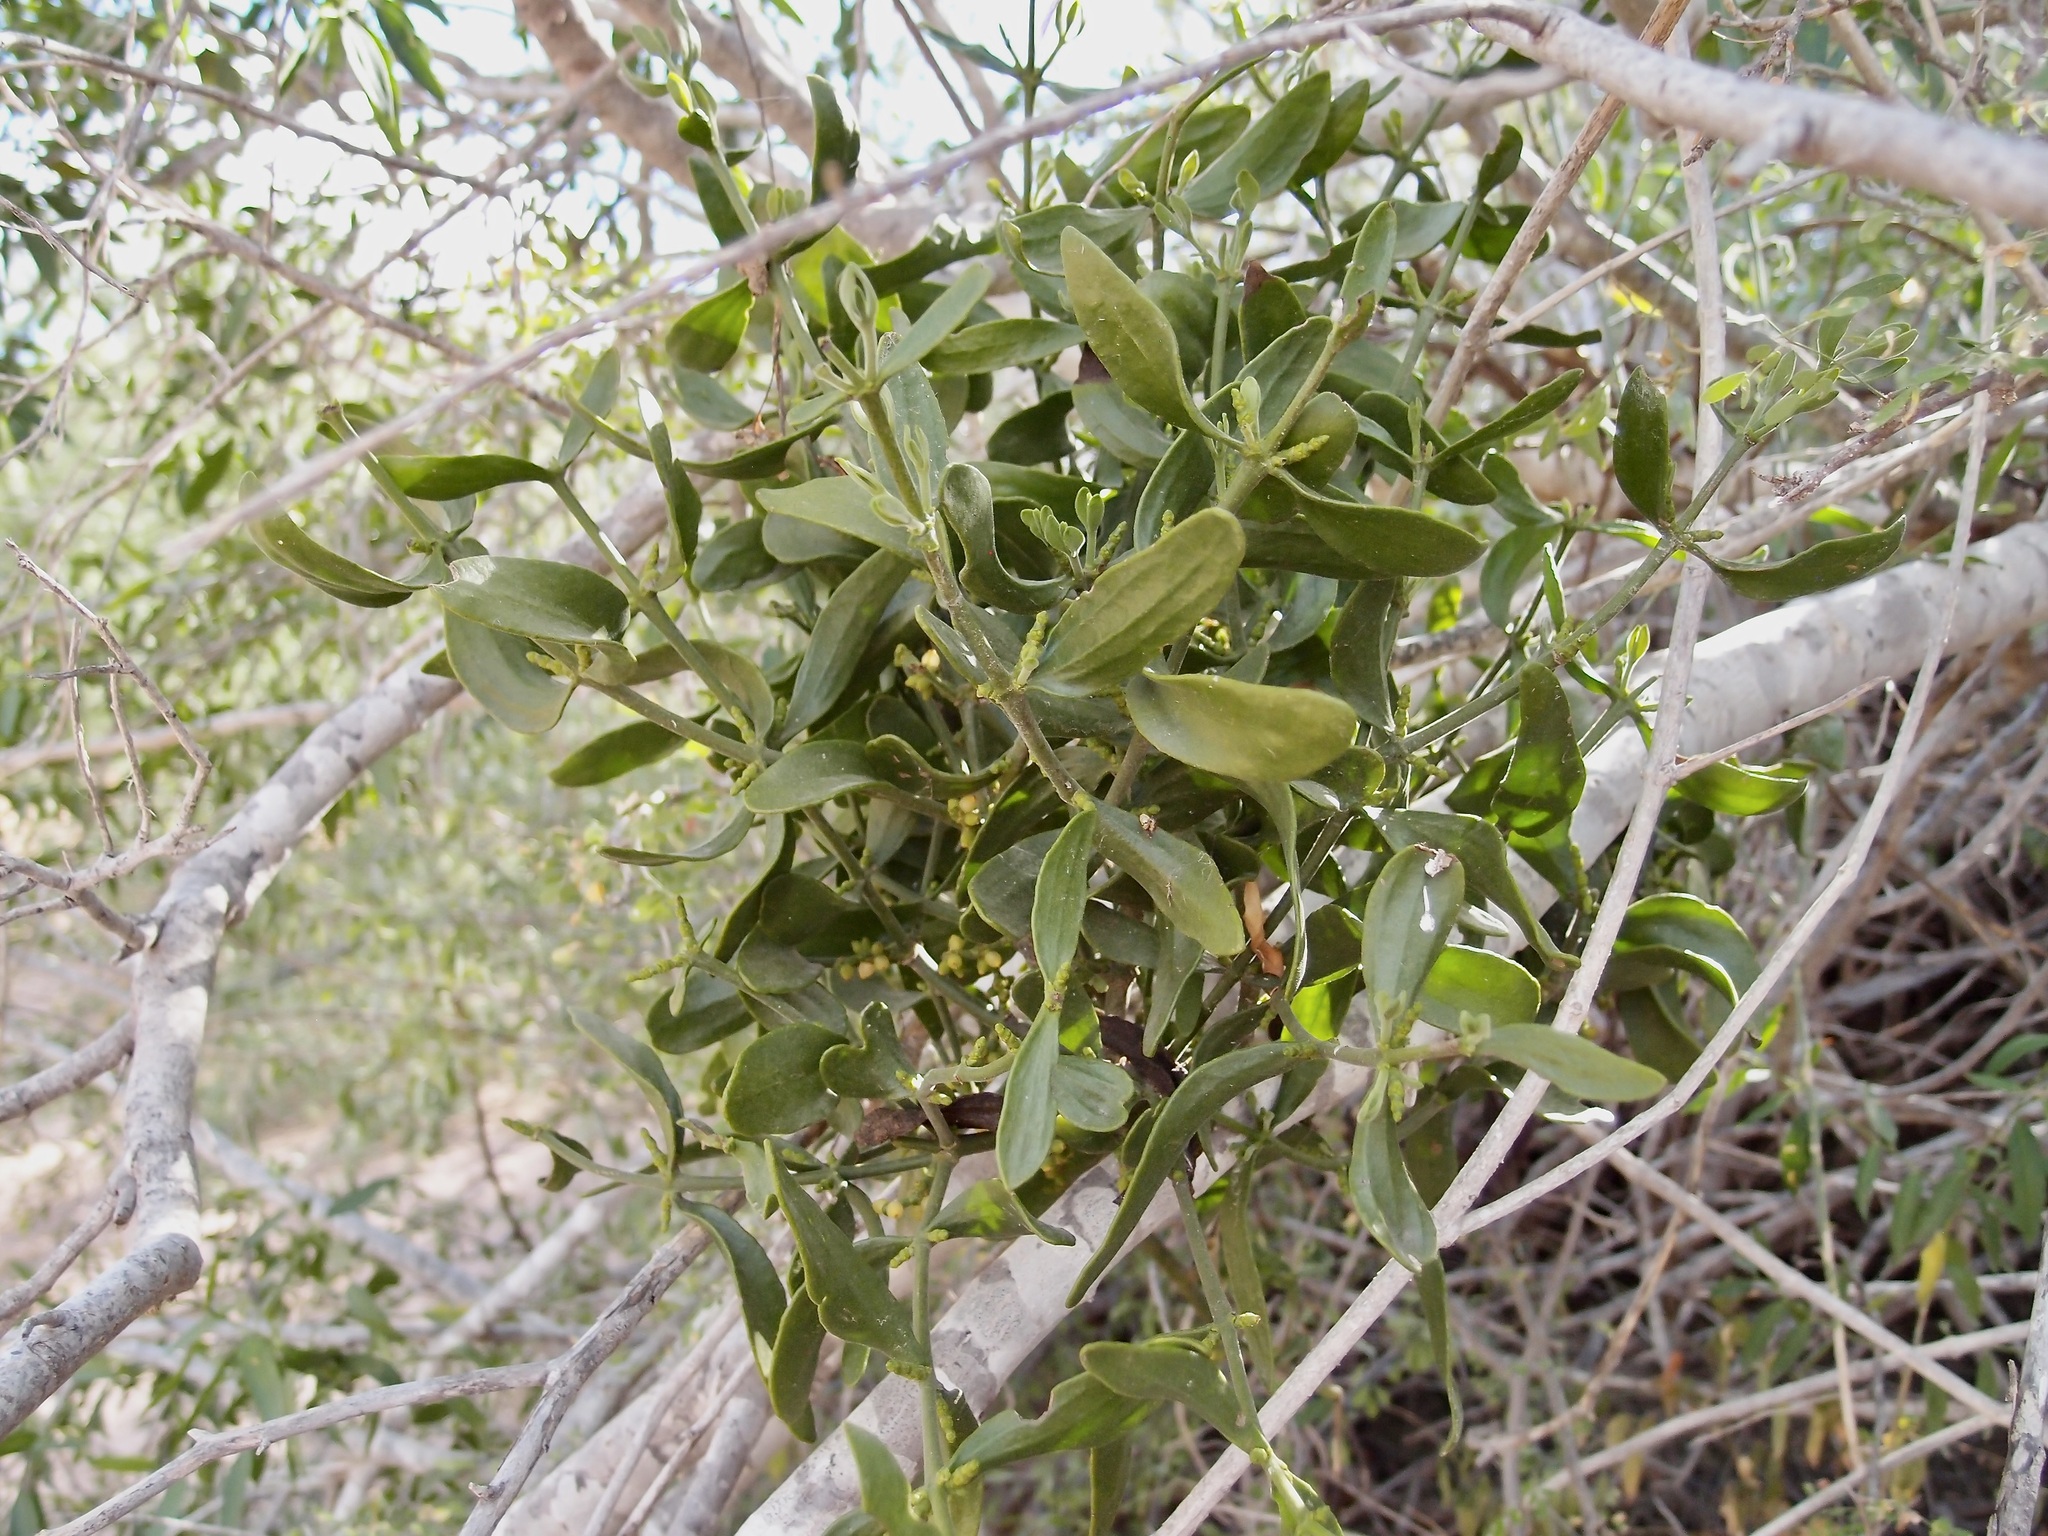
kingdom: Plantae
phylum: Tracheophyta
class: Magnoliopsida
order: Santalales
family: Viscaceae
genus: Phoradendron
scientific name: Phoradendron brachystachyum
